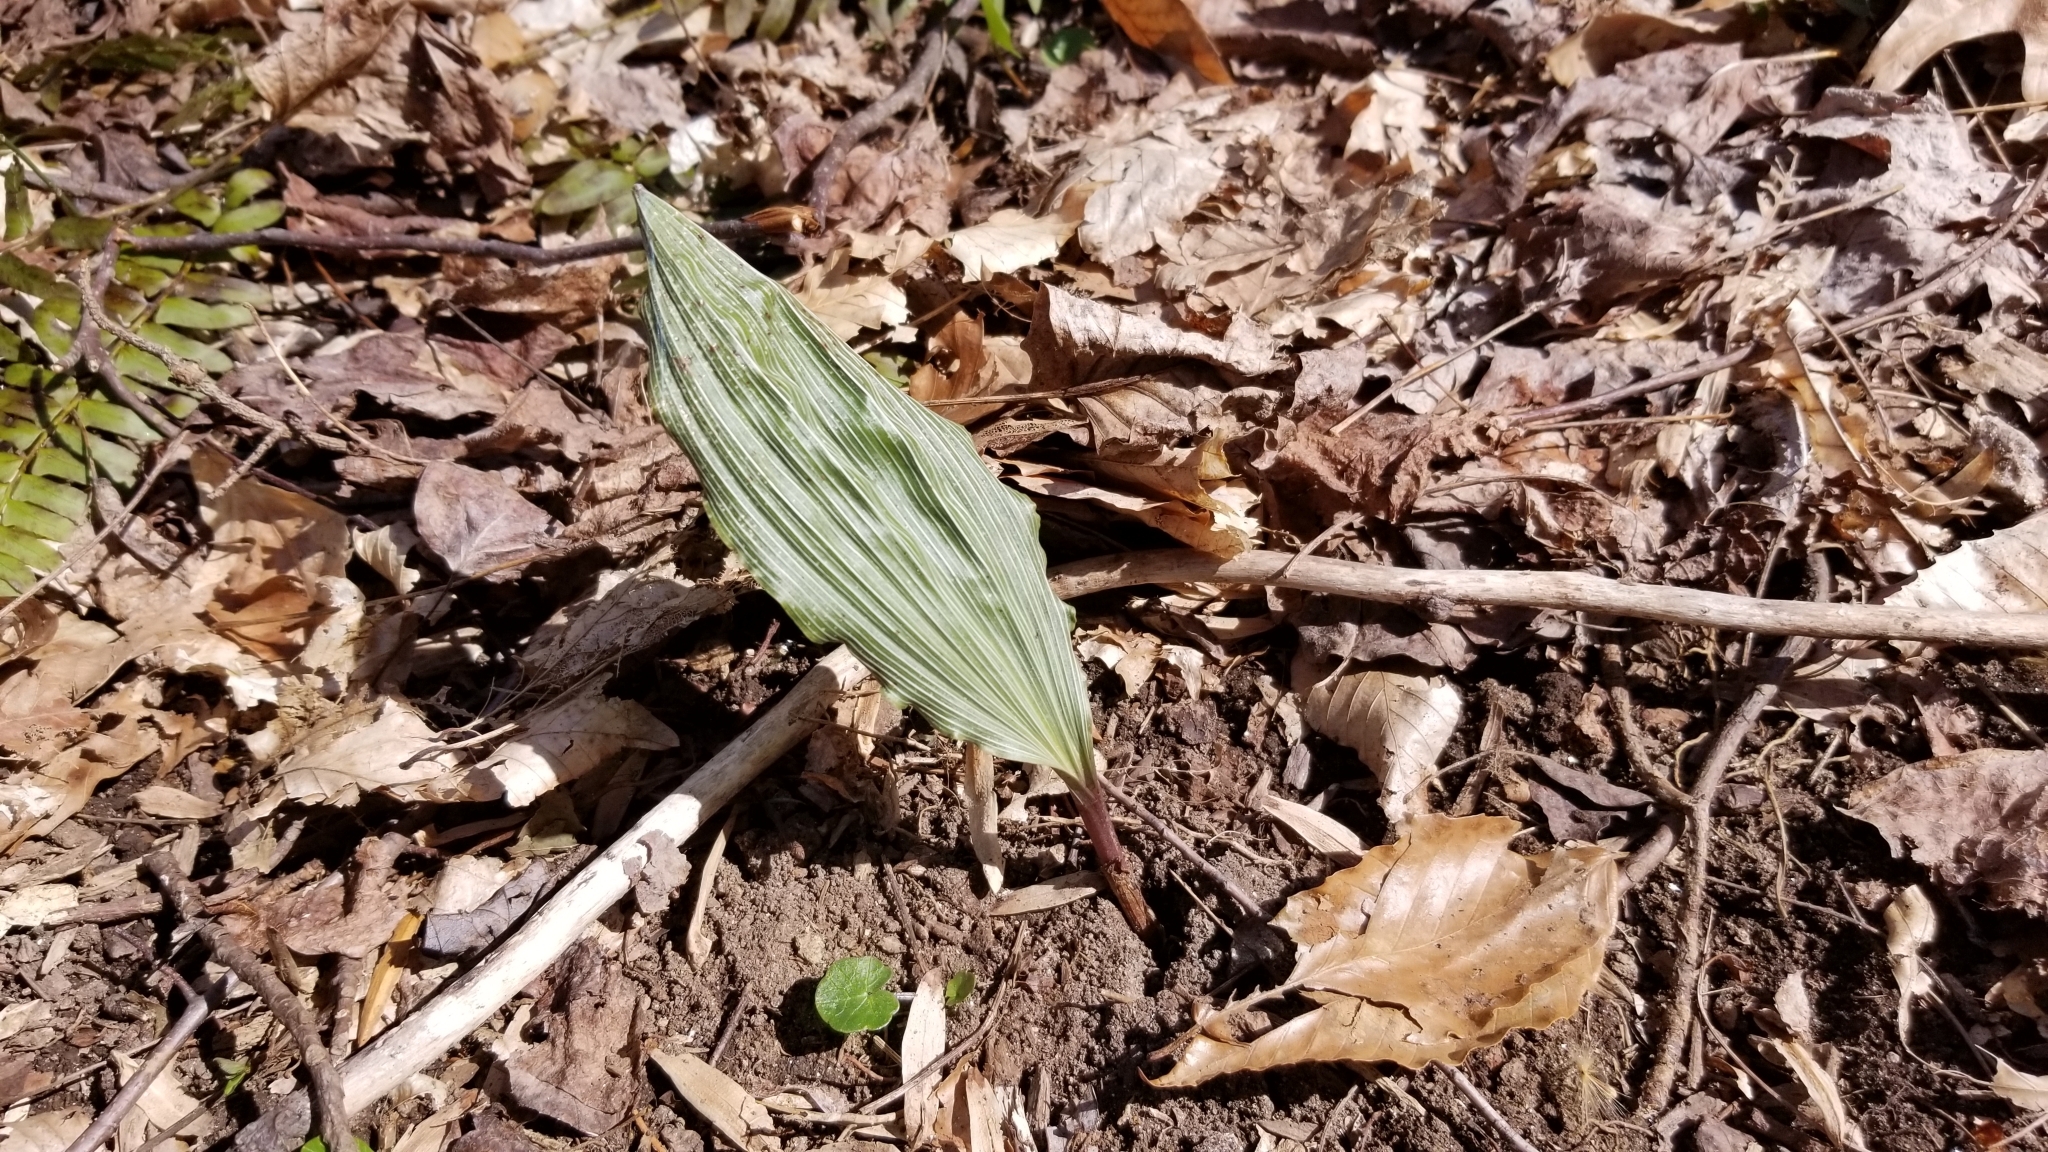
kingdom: Plantae
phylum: Tracheophyta
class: Liliopsida
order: Asparagales
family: Orchidaceae
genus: Aplectrum
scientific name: Aplectrum hyemale
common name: Adam-and-eve
